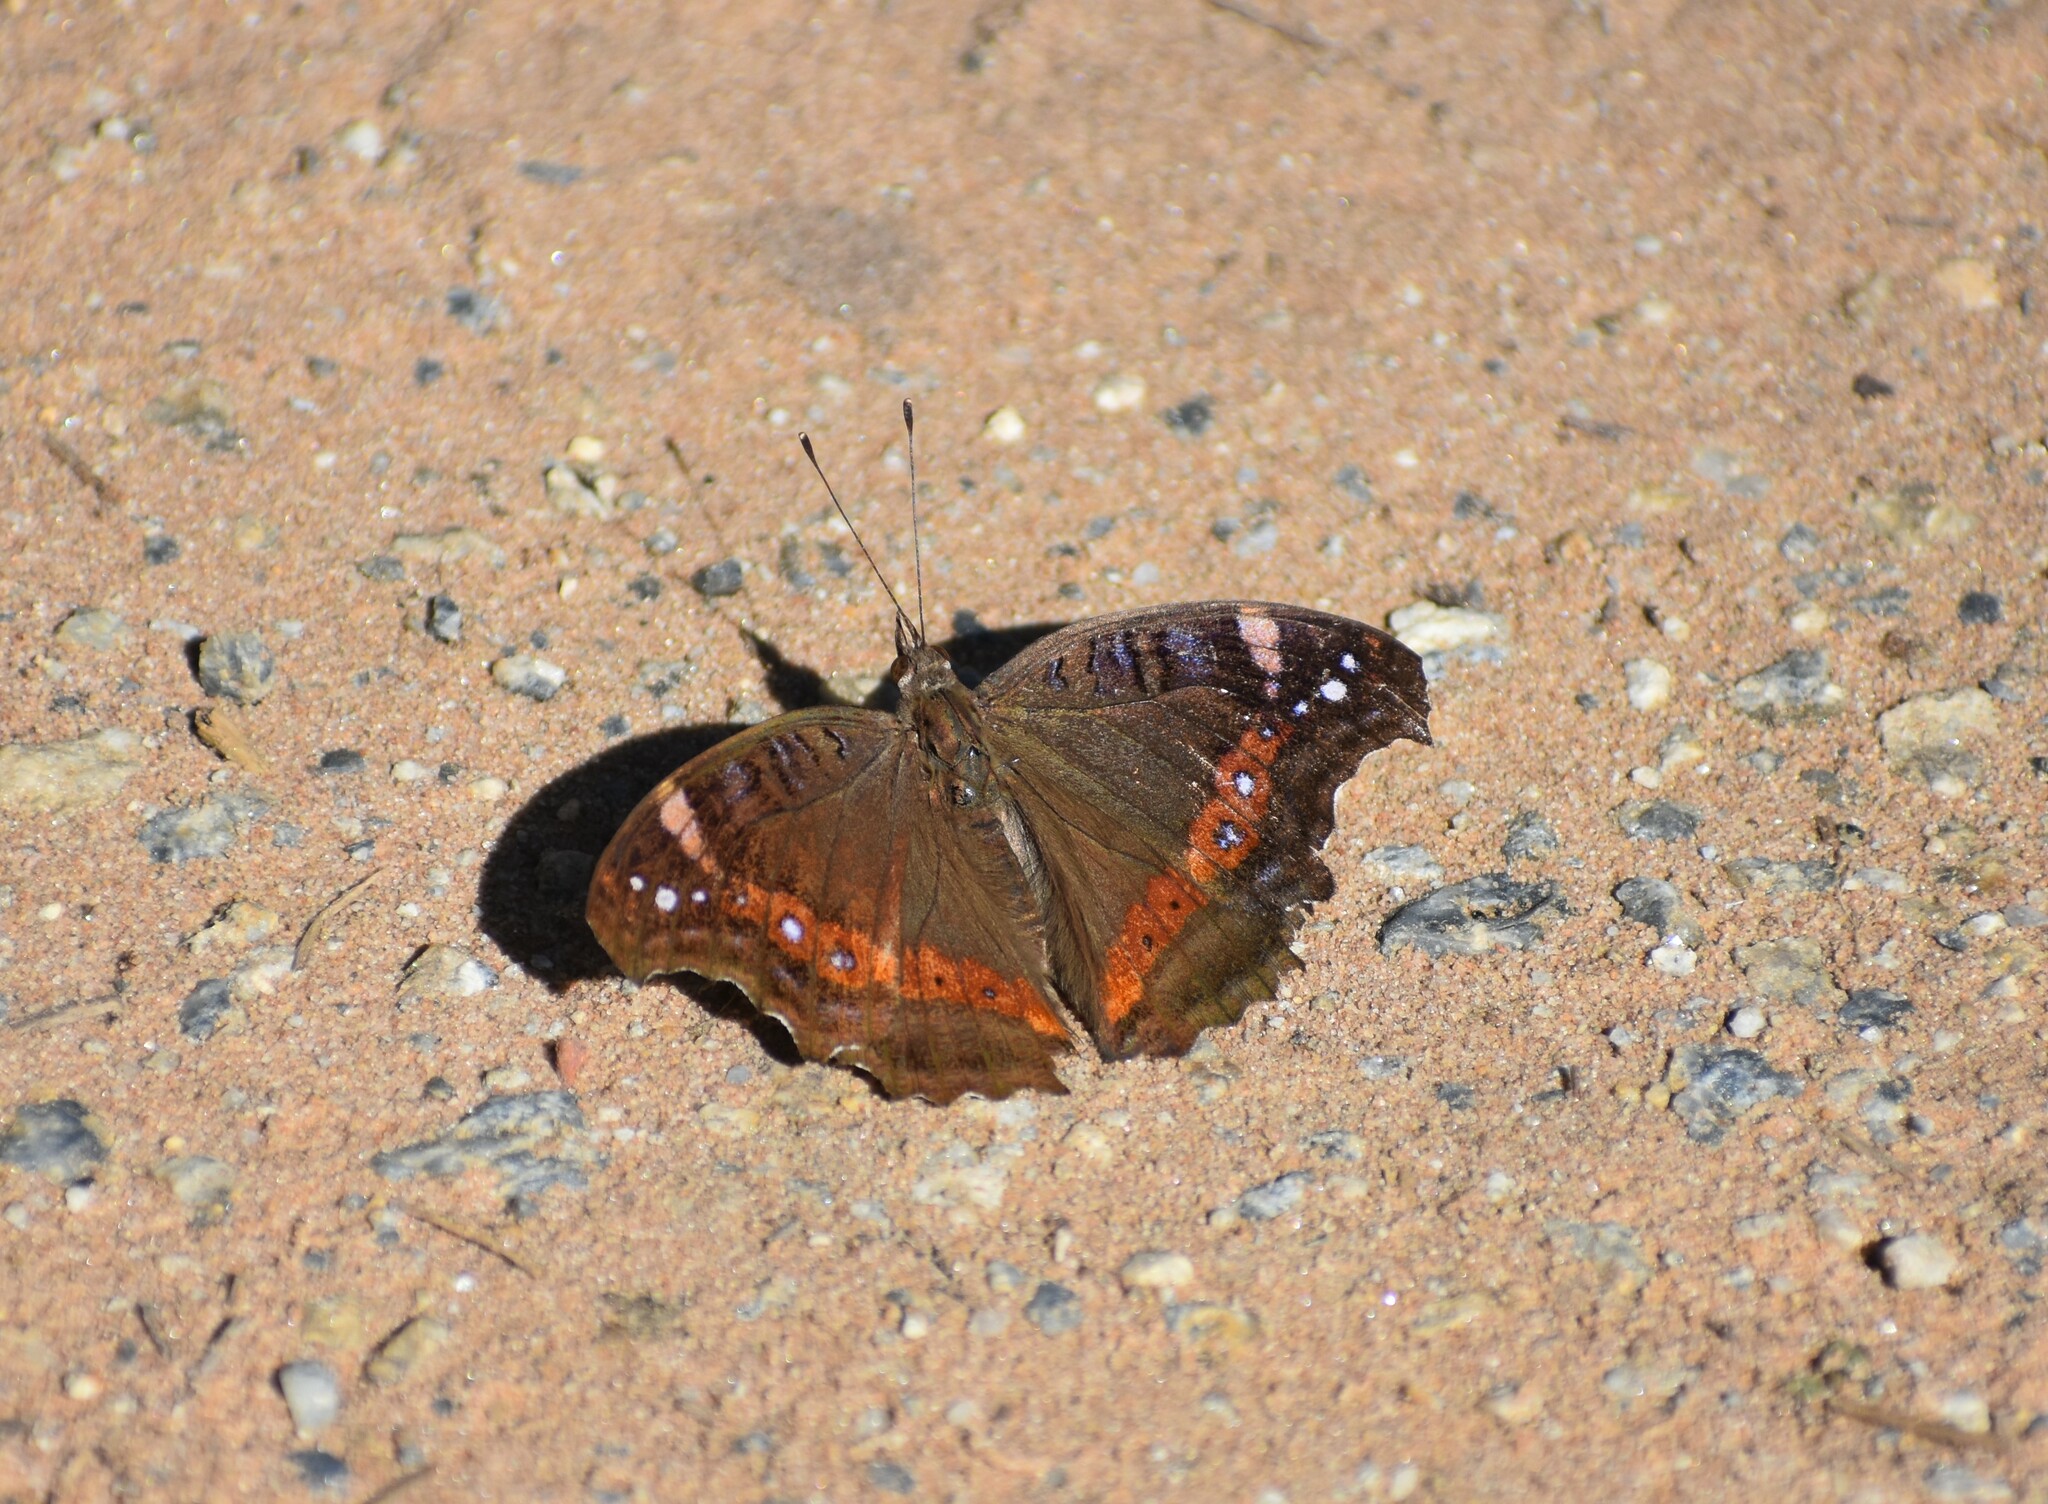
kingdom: Animalia
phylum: Arthropoda
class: Insecta
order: Lepidoptera
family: Nymphalidae
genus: Junonia
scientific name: Junonia archesia
